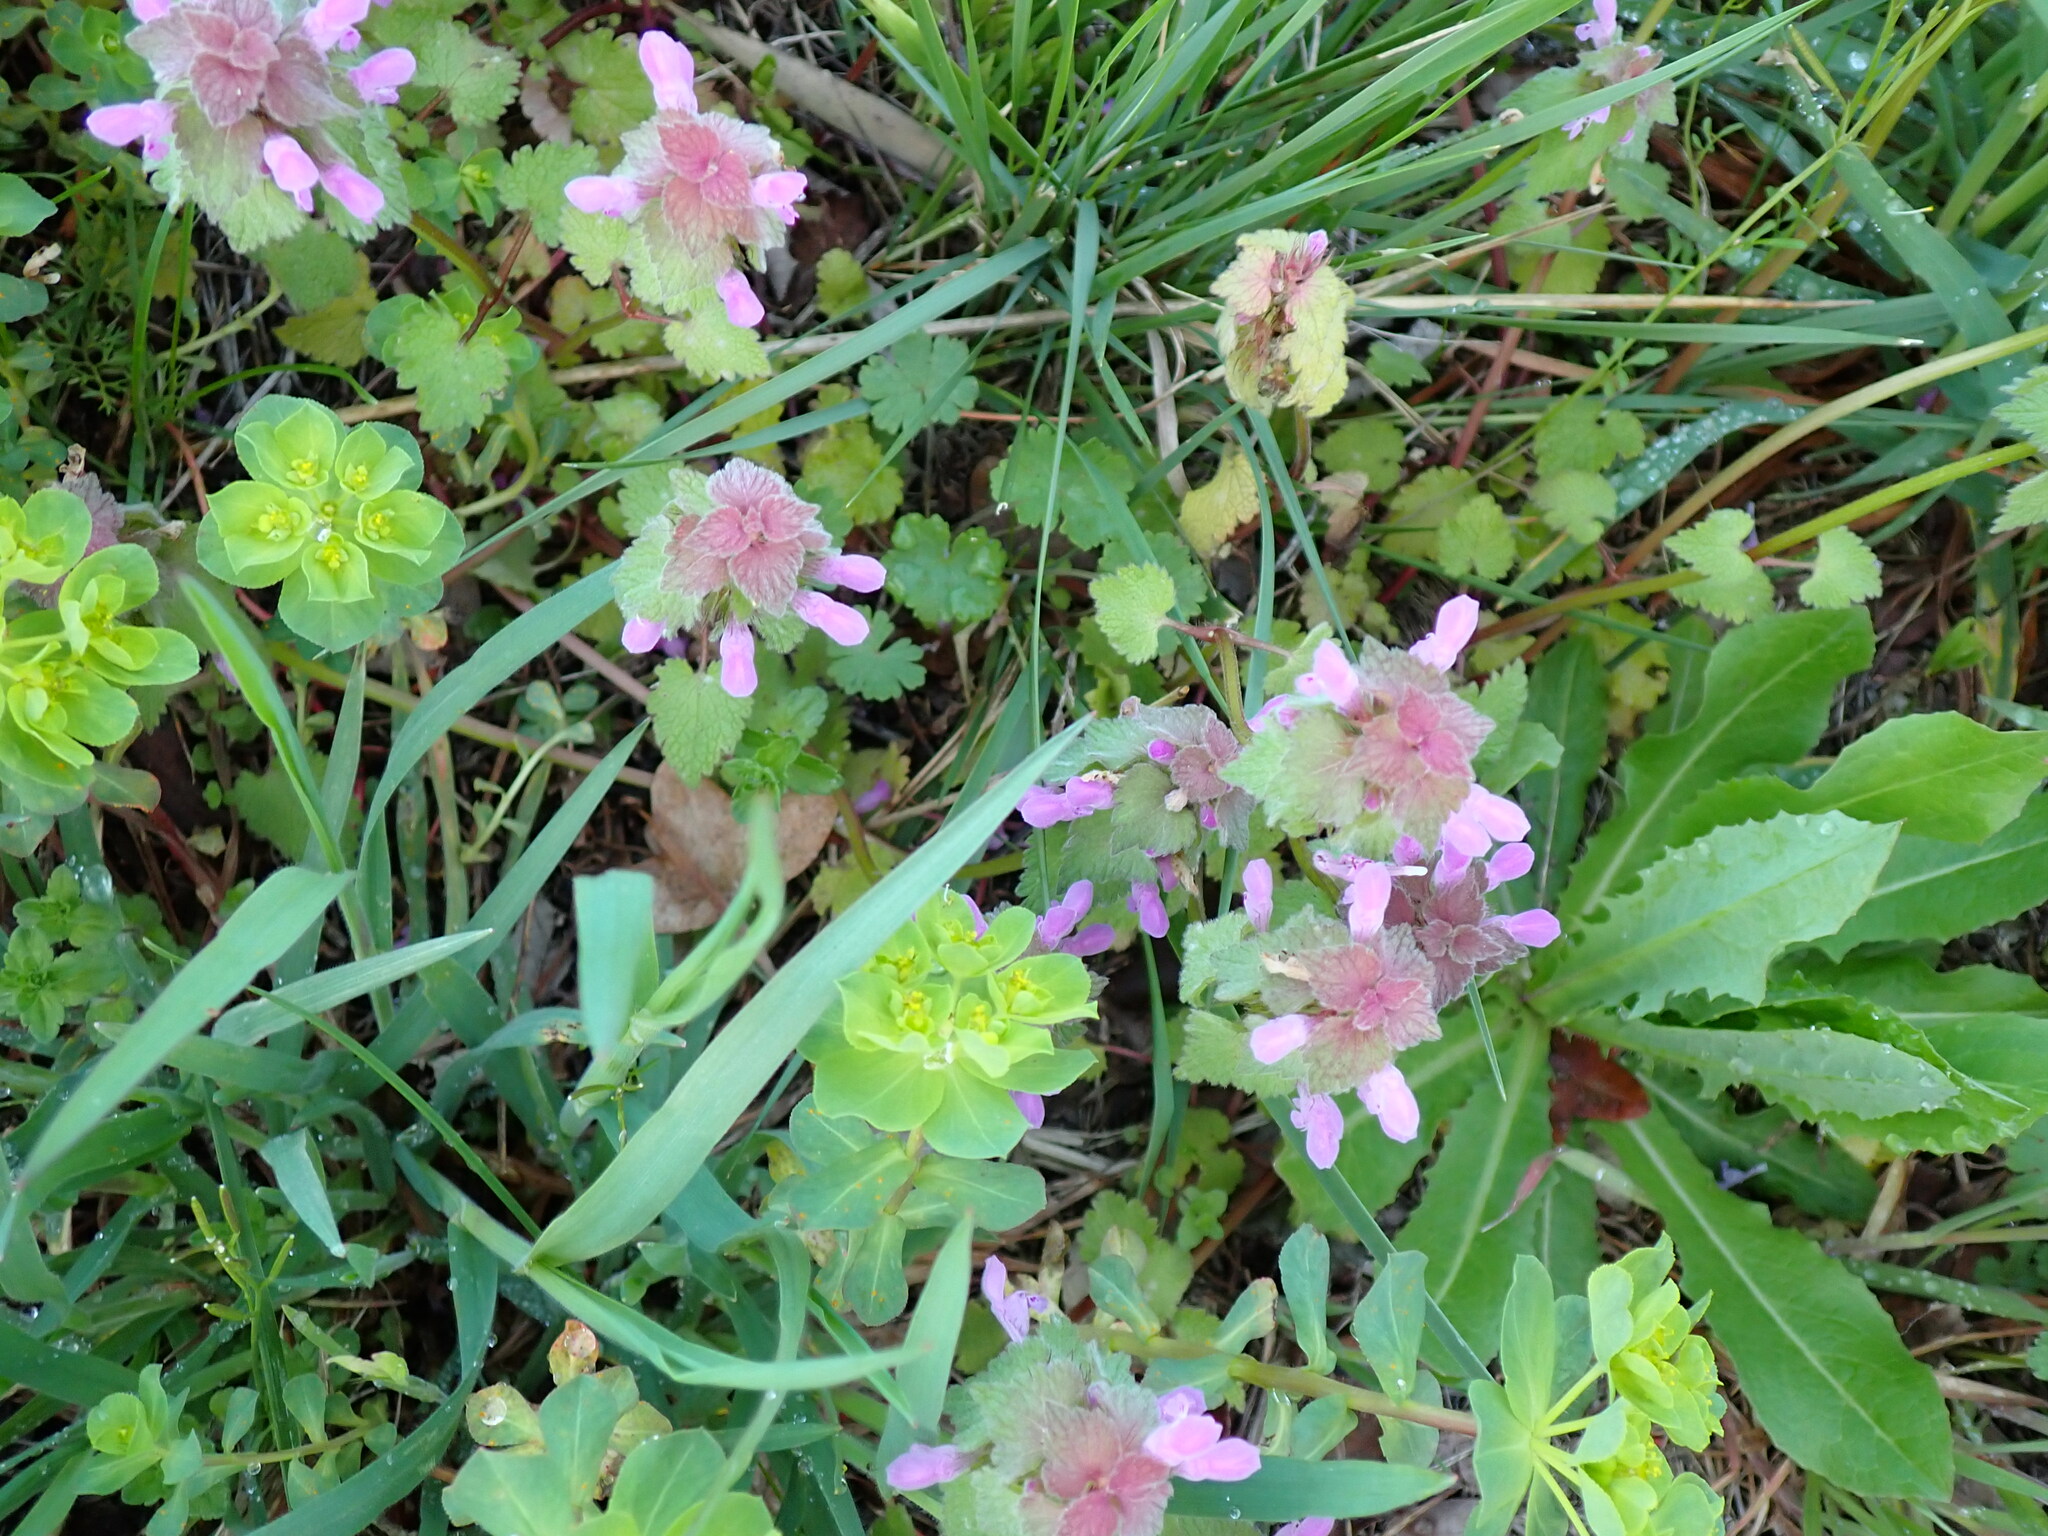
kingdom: Plantae
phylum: Tracheophyta
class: Magnoliopsida
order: Lamiales
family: Lamiaceae
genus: Lamium
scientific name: Lamium purpureum
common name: Red dead-nettle
